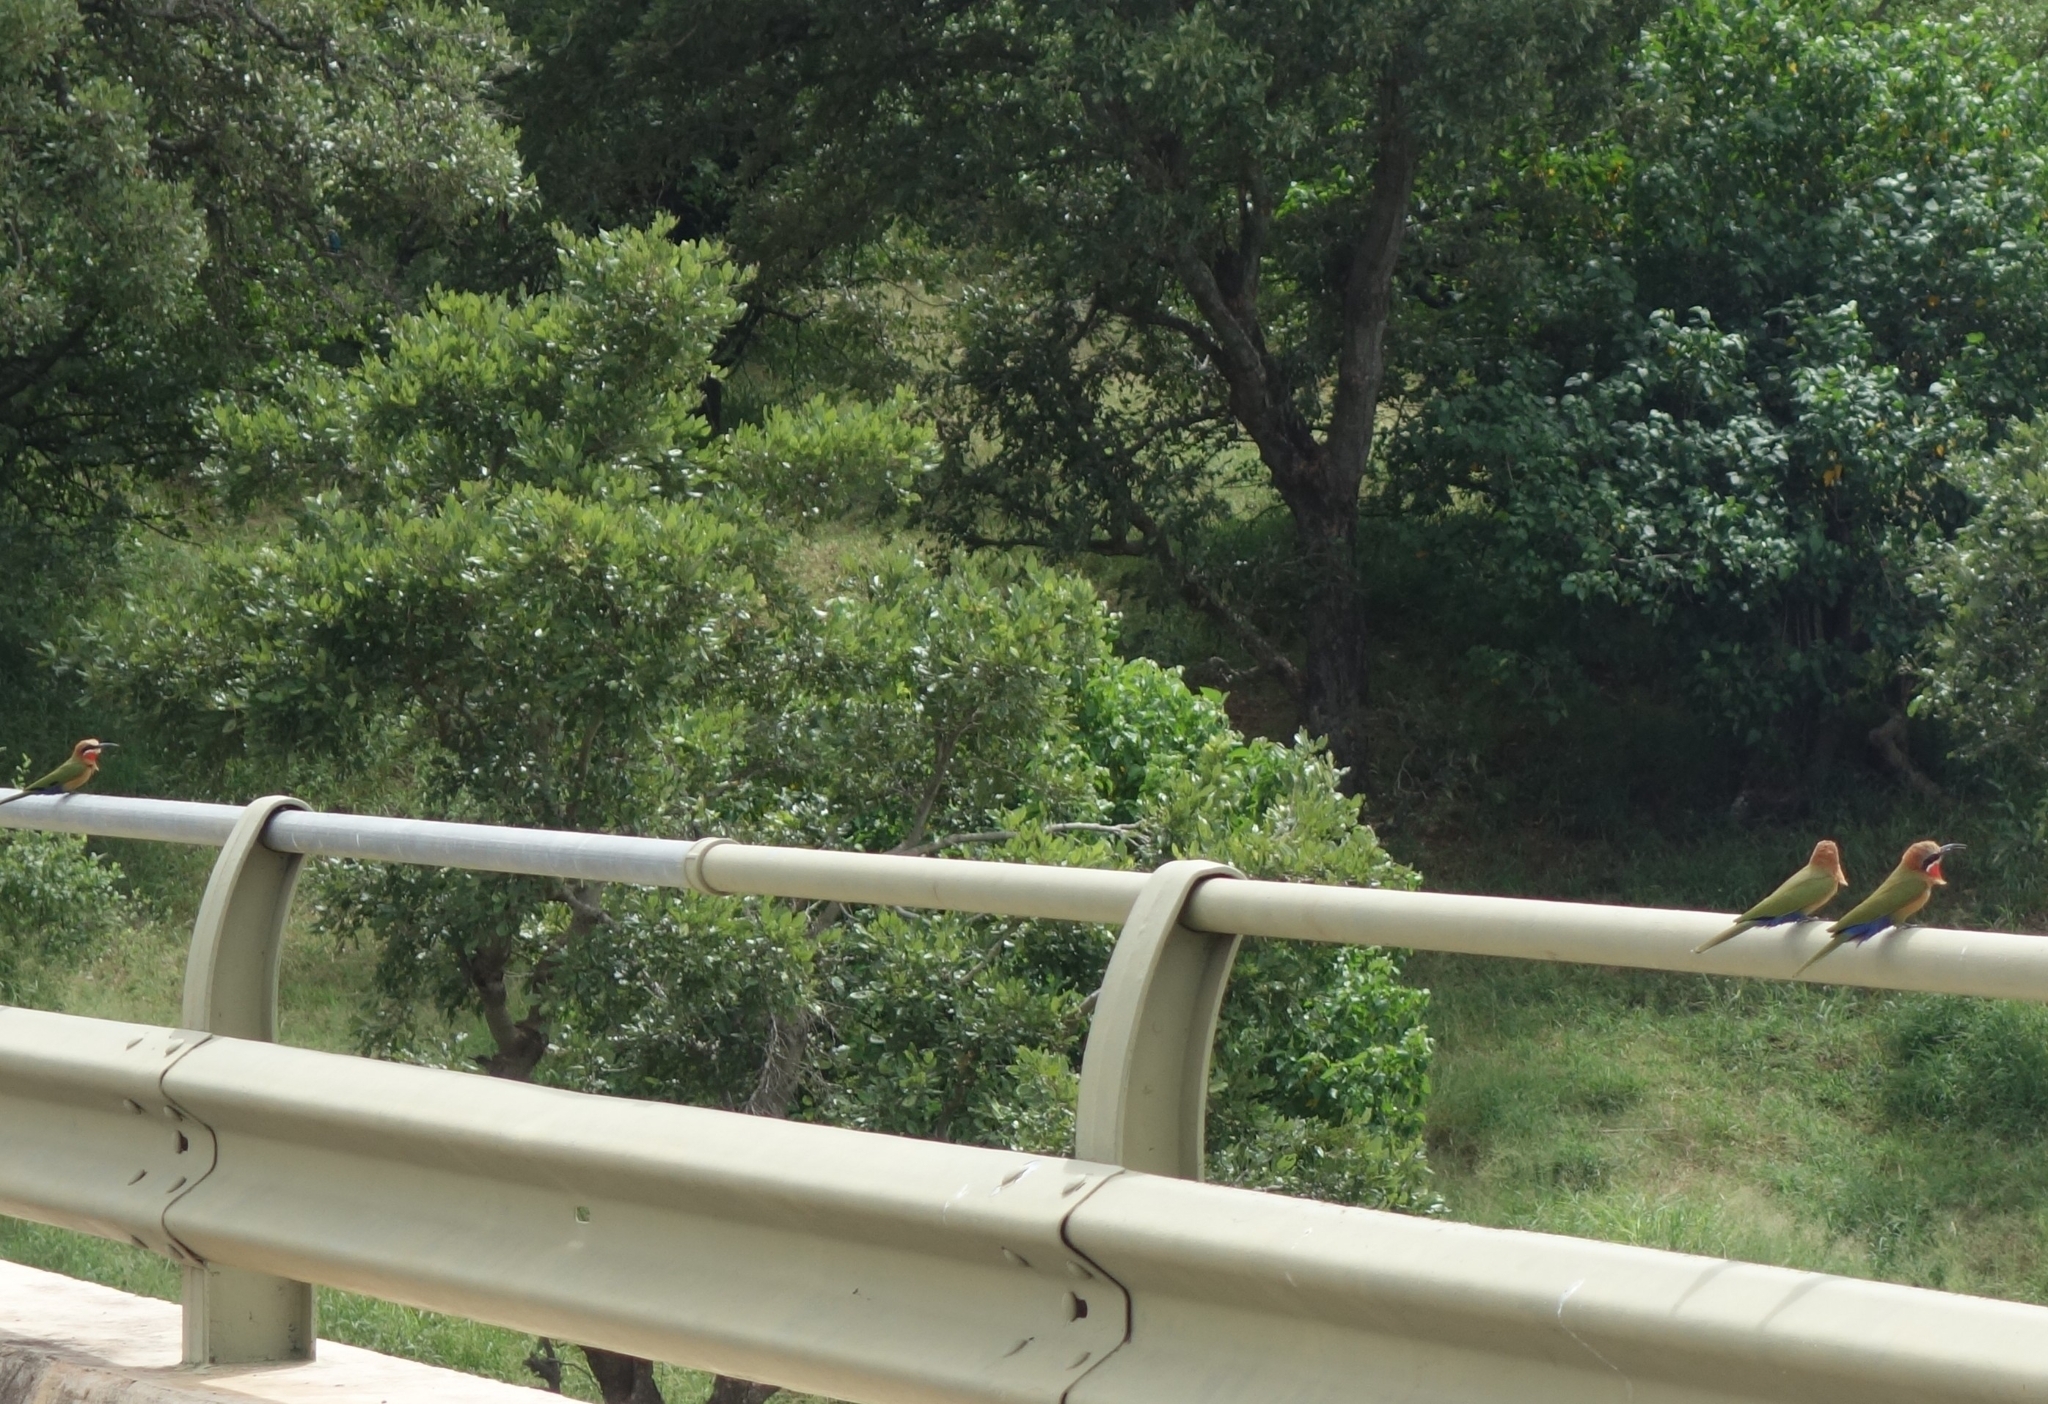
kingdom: Animalia
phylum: Chordata
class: Aves
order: Coraciiformes
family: Meropidae
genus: Merops
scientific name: Merops bullockoides
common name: White-fronted bee-eater
